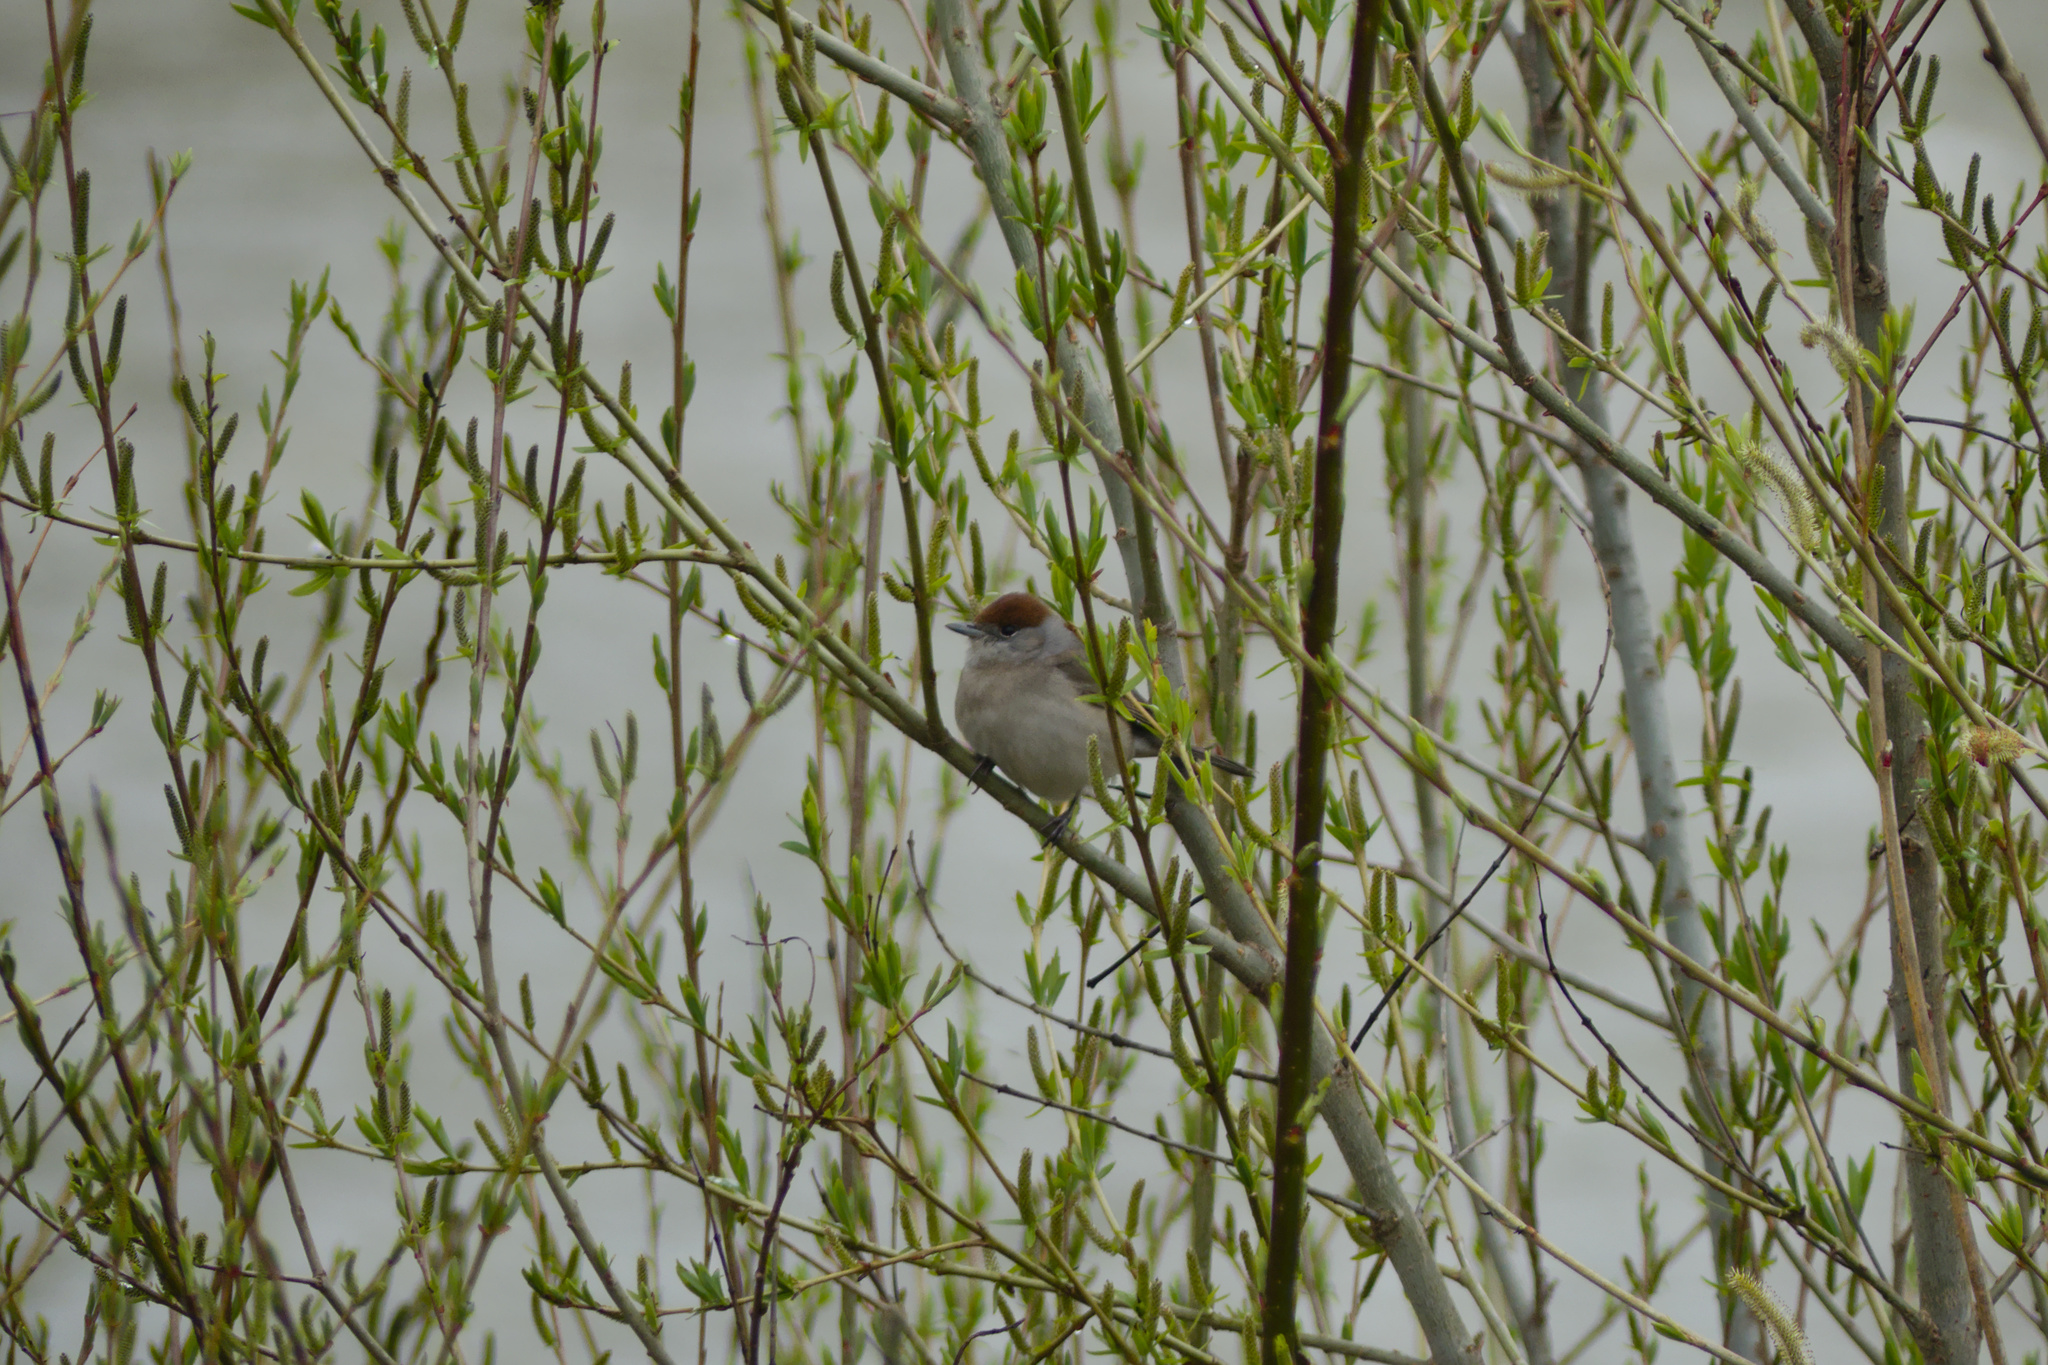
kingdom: Animalia
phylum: Chordata
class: Aves
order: Passeriformes
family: Sylviidae
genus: Sylvia
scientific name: Sylvia atricapilla
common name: Eurasian blackcap
